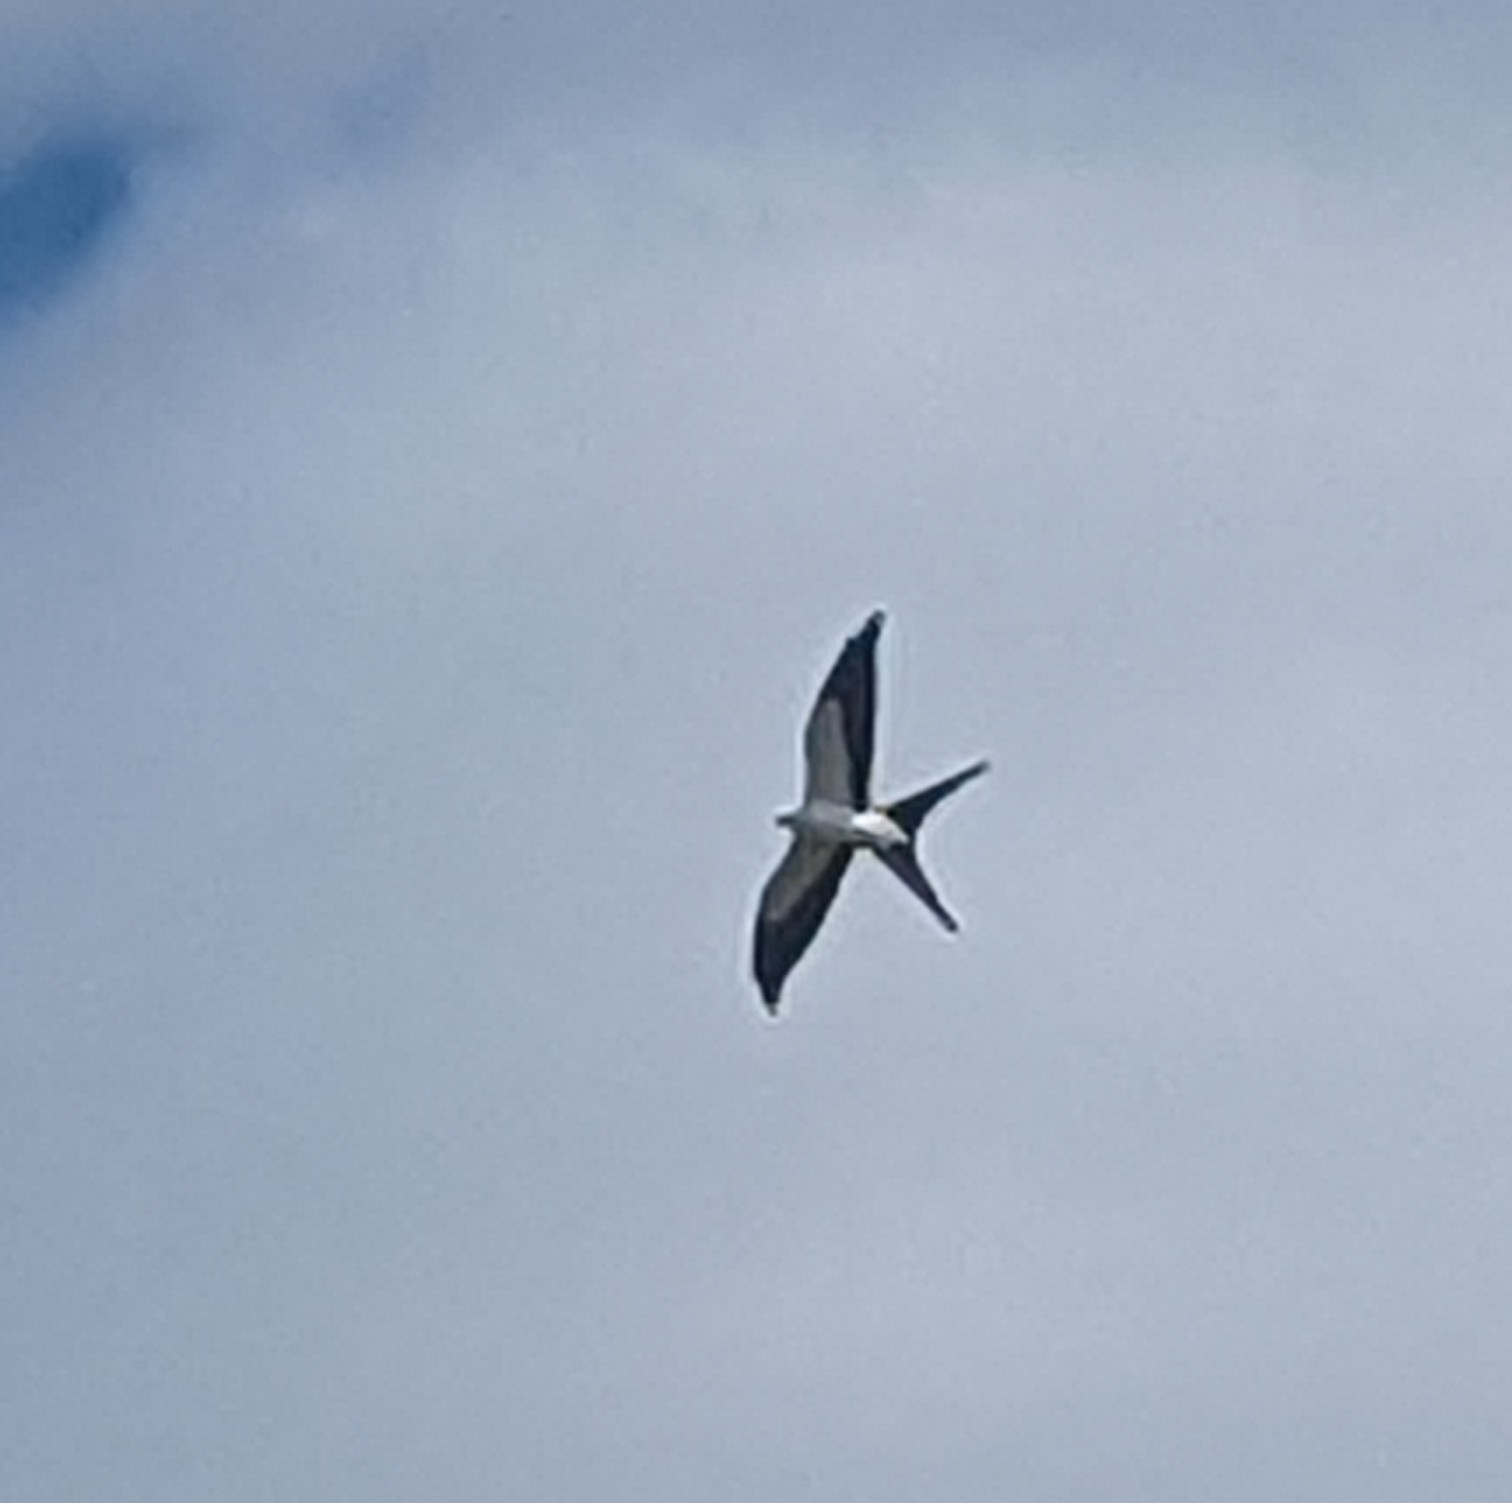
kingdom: Animalia
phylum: Chordata
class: Aves
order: Accipitriformes
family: Accipitridae
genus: Elanoides
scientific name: Elanoides forficatus
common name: Swallow-tailed kite
